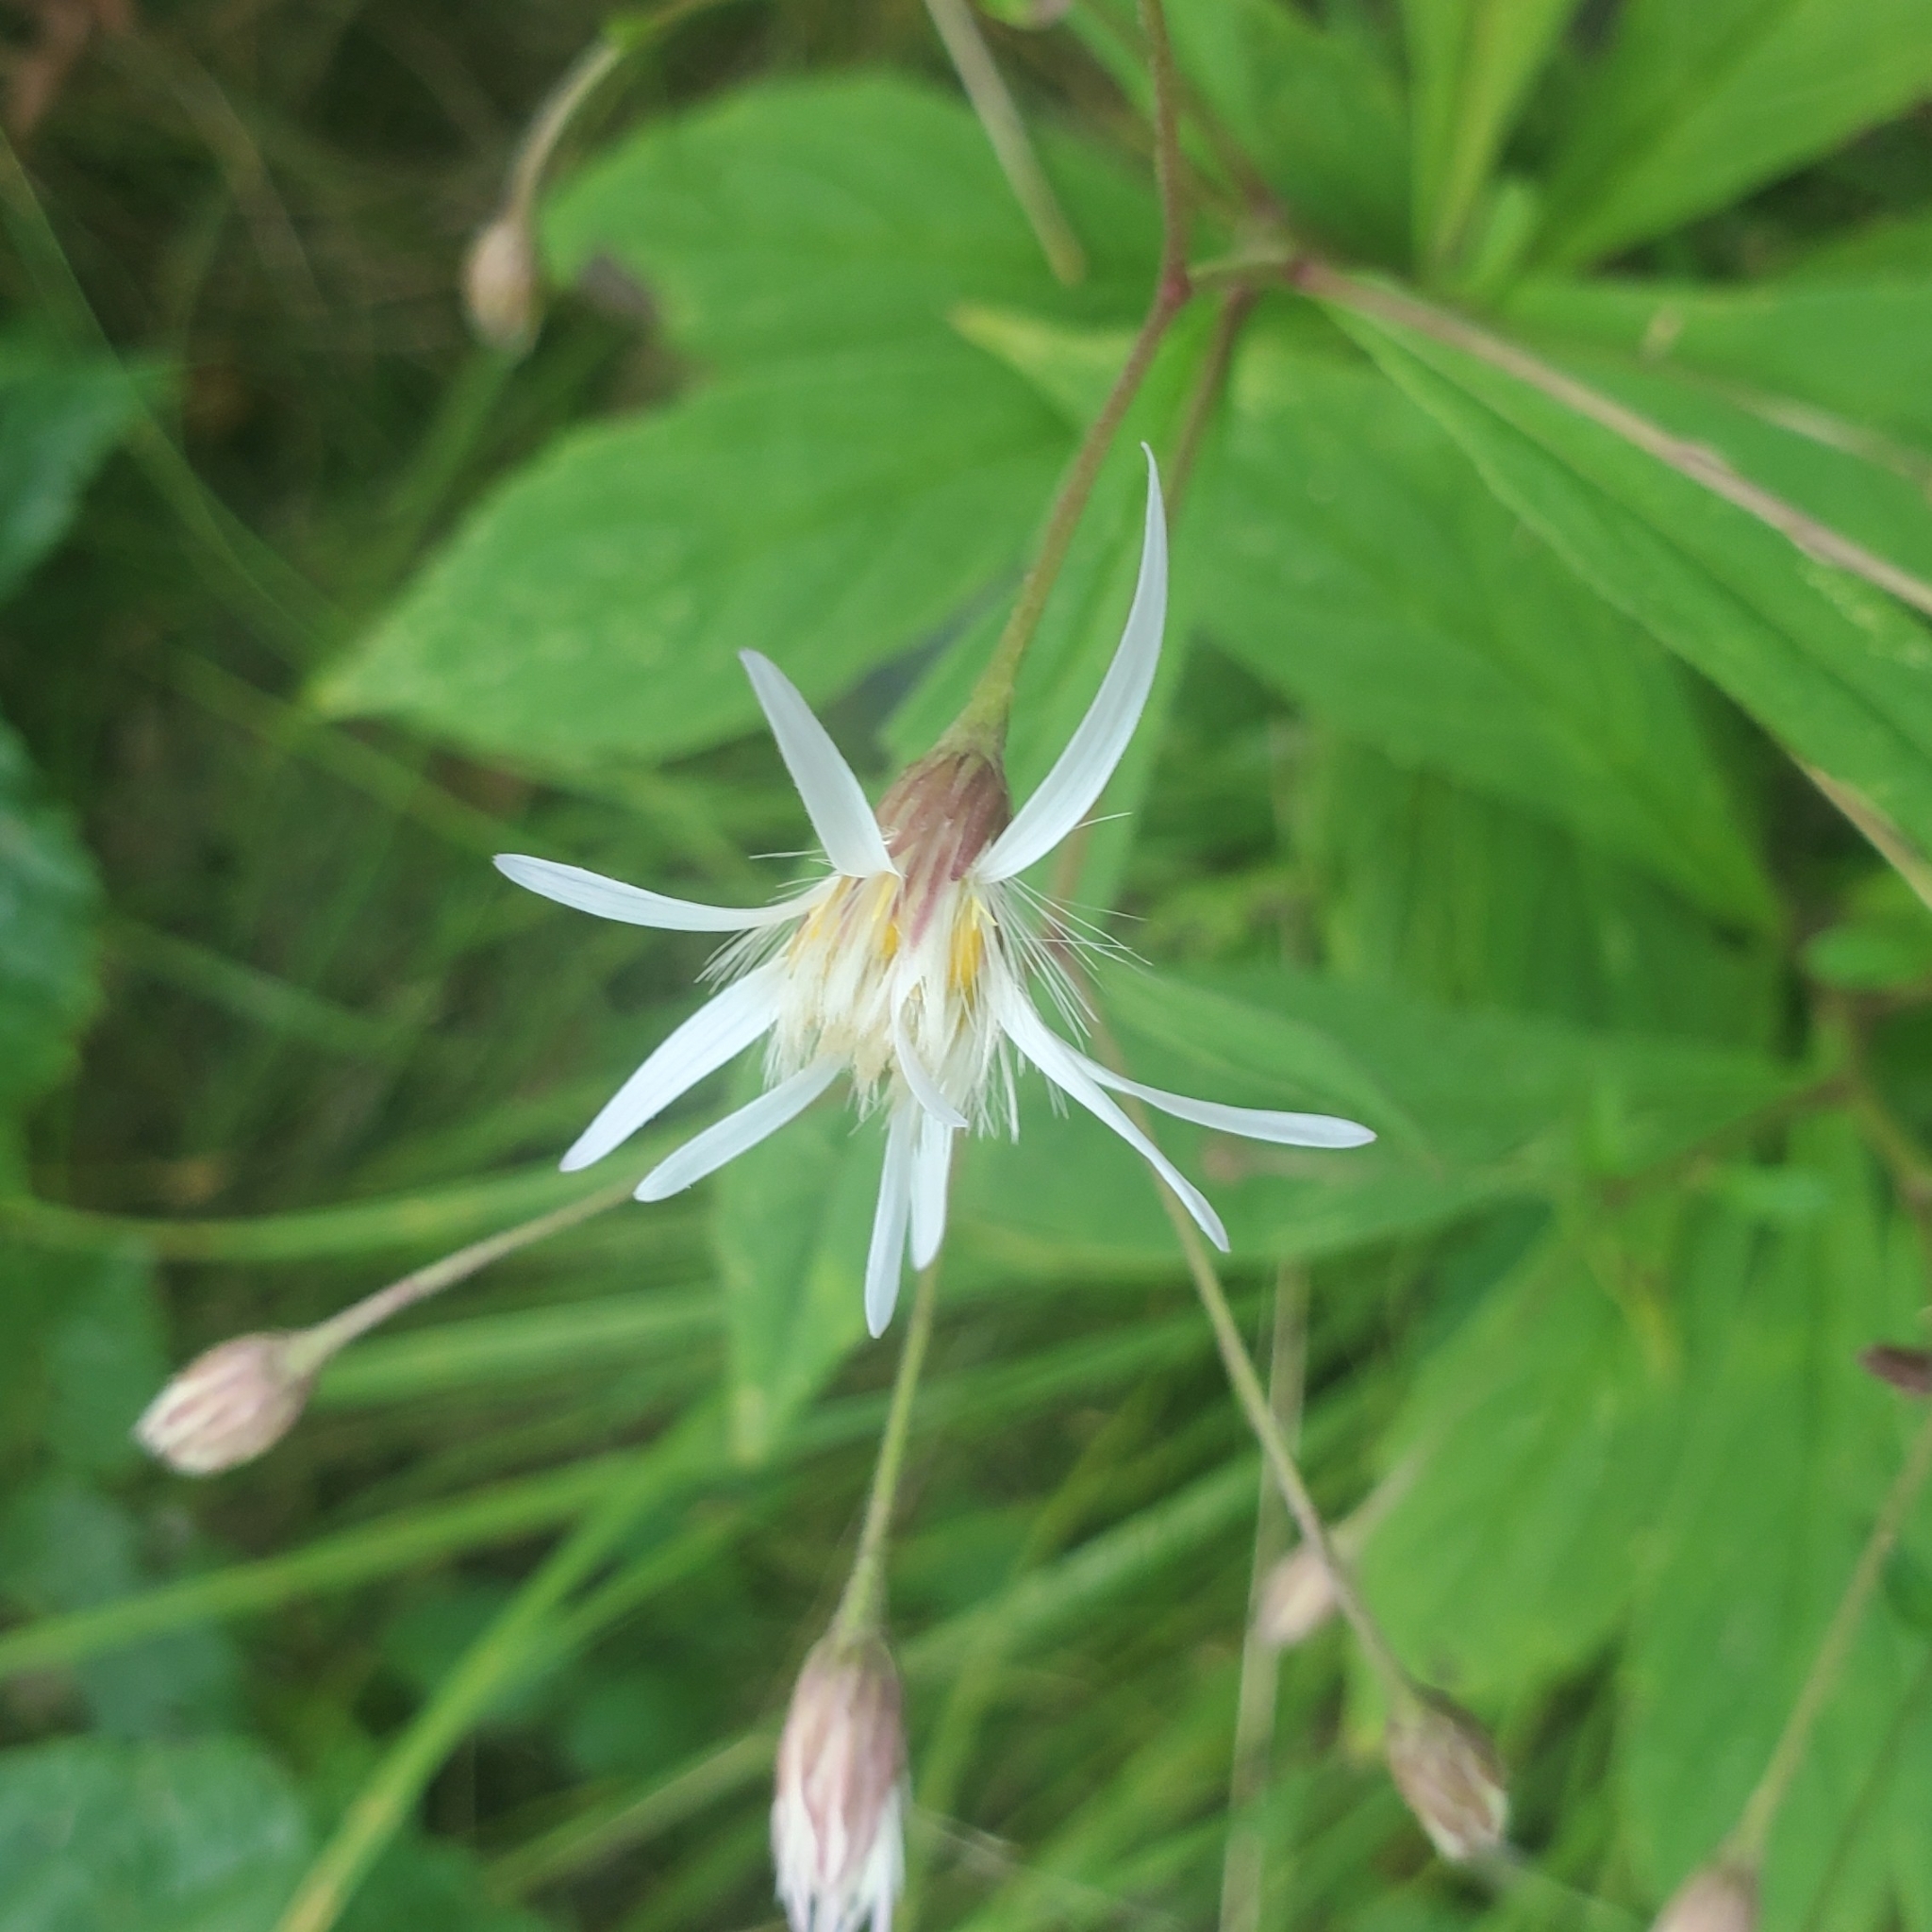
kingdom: Plantae
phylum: Tracheophyta
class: Magnoliopsida
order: Asterales
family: Asteraceae
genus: Oclemena
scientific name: Oclemena acuminata
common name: Mountain aster
